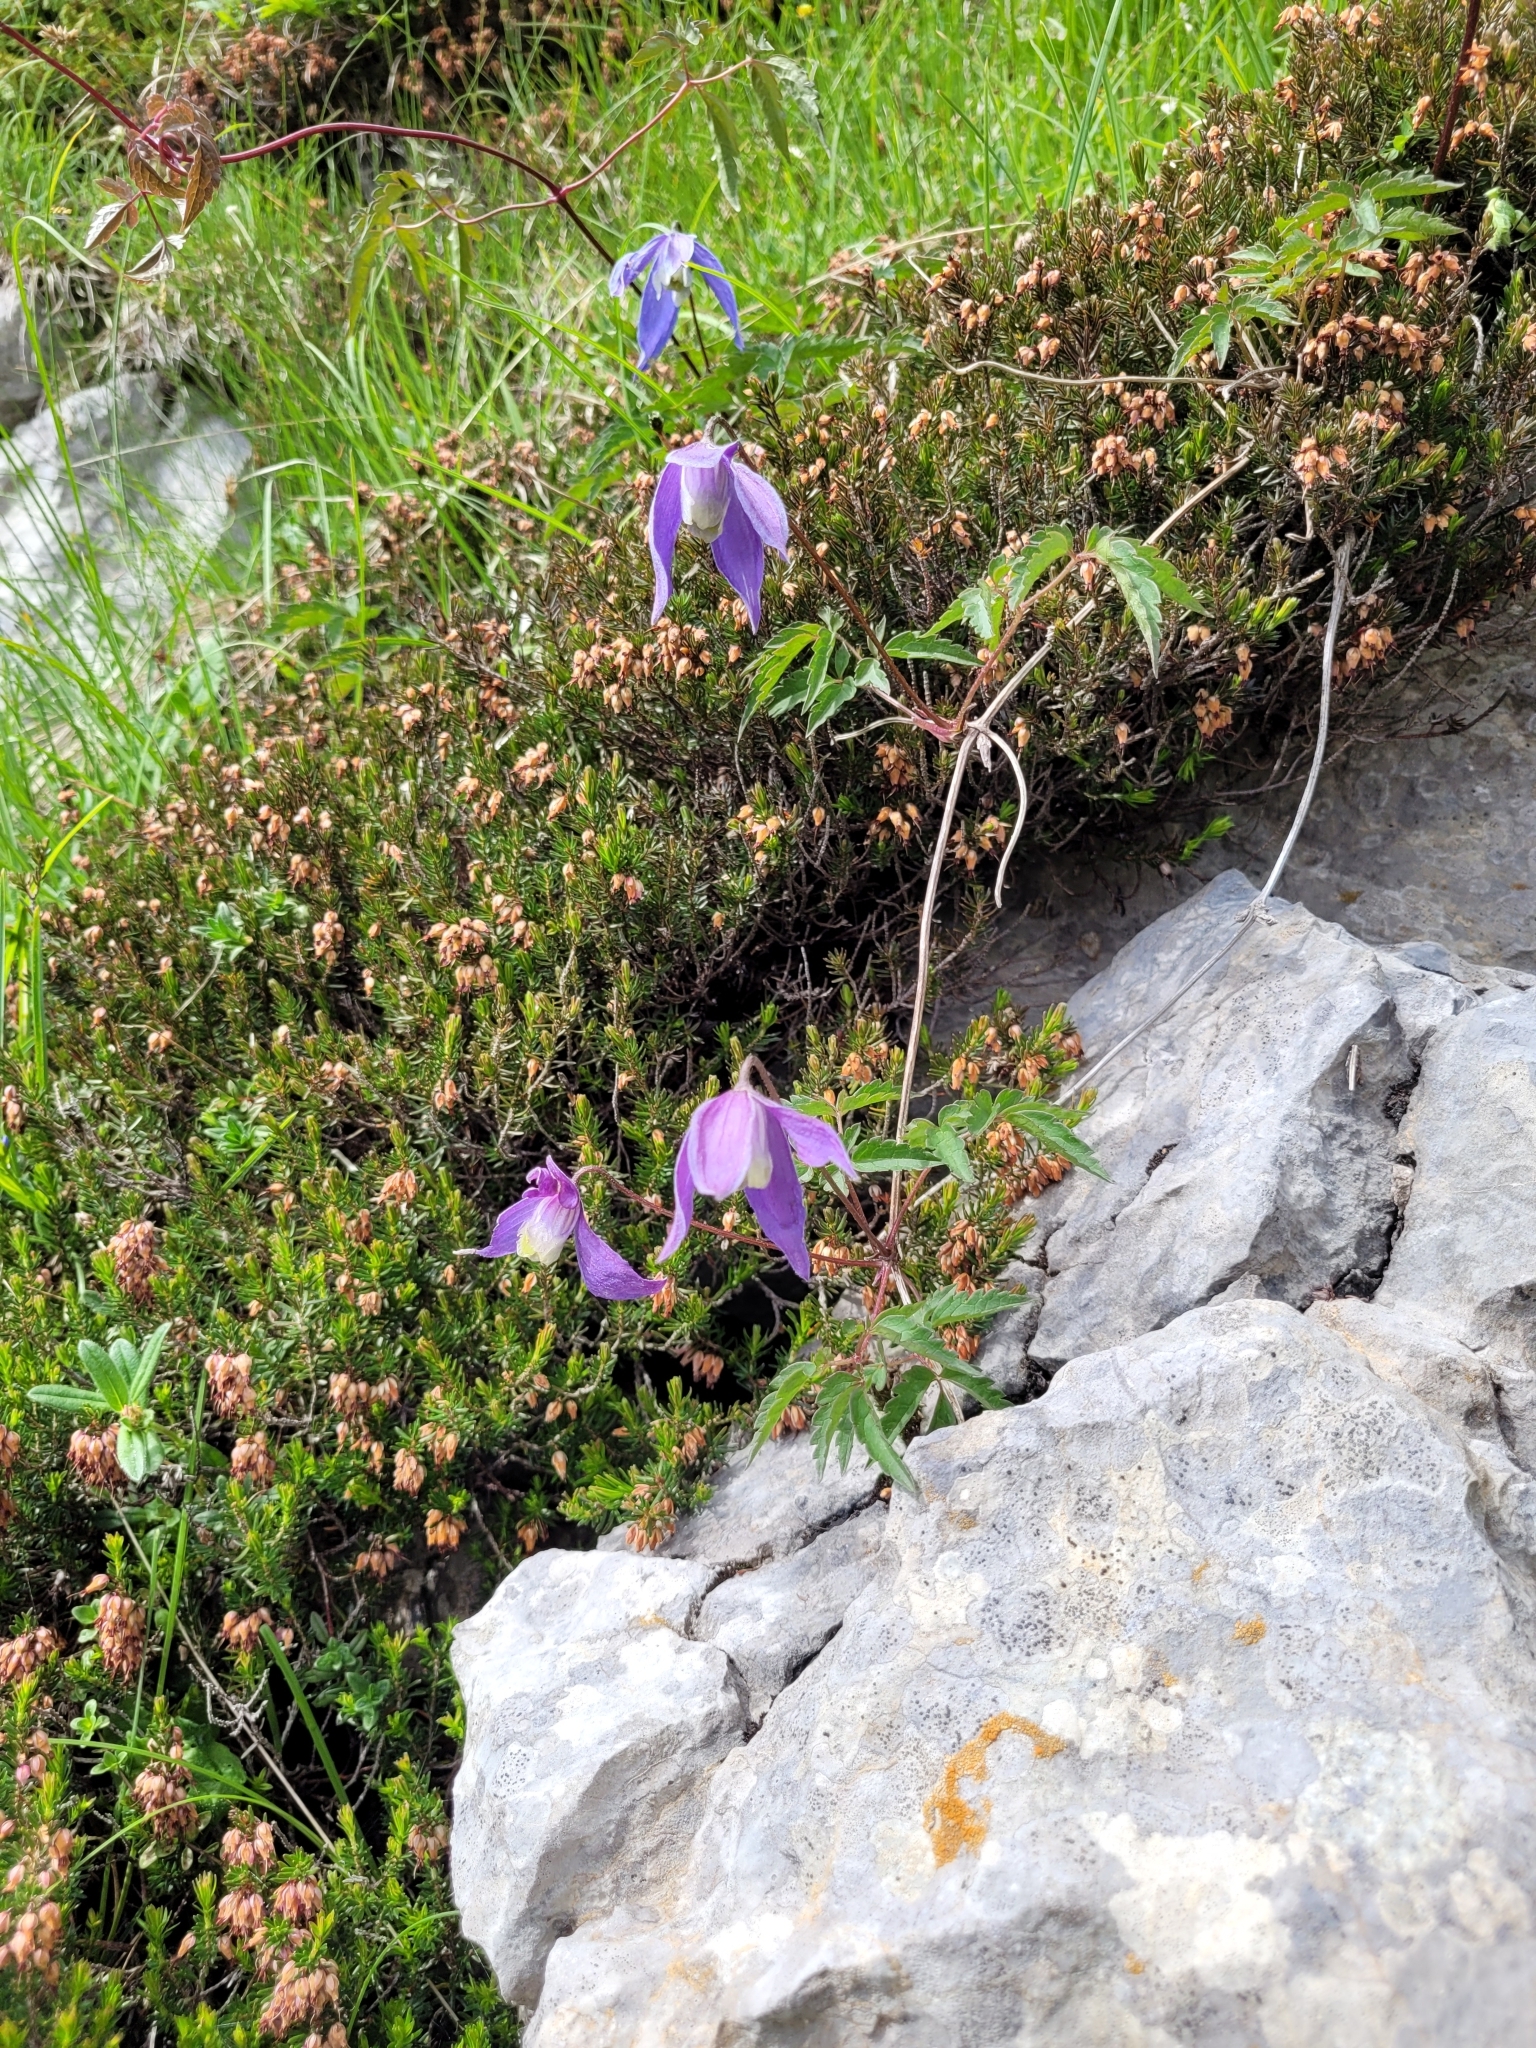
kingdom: Plantae
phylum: Tracheophyta
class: Magnoliopsida
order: Ranunculales
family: Ranunculaceae
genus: Clematis
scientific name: Clematis alpina
